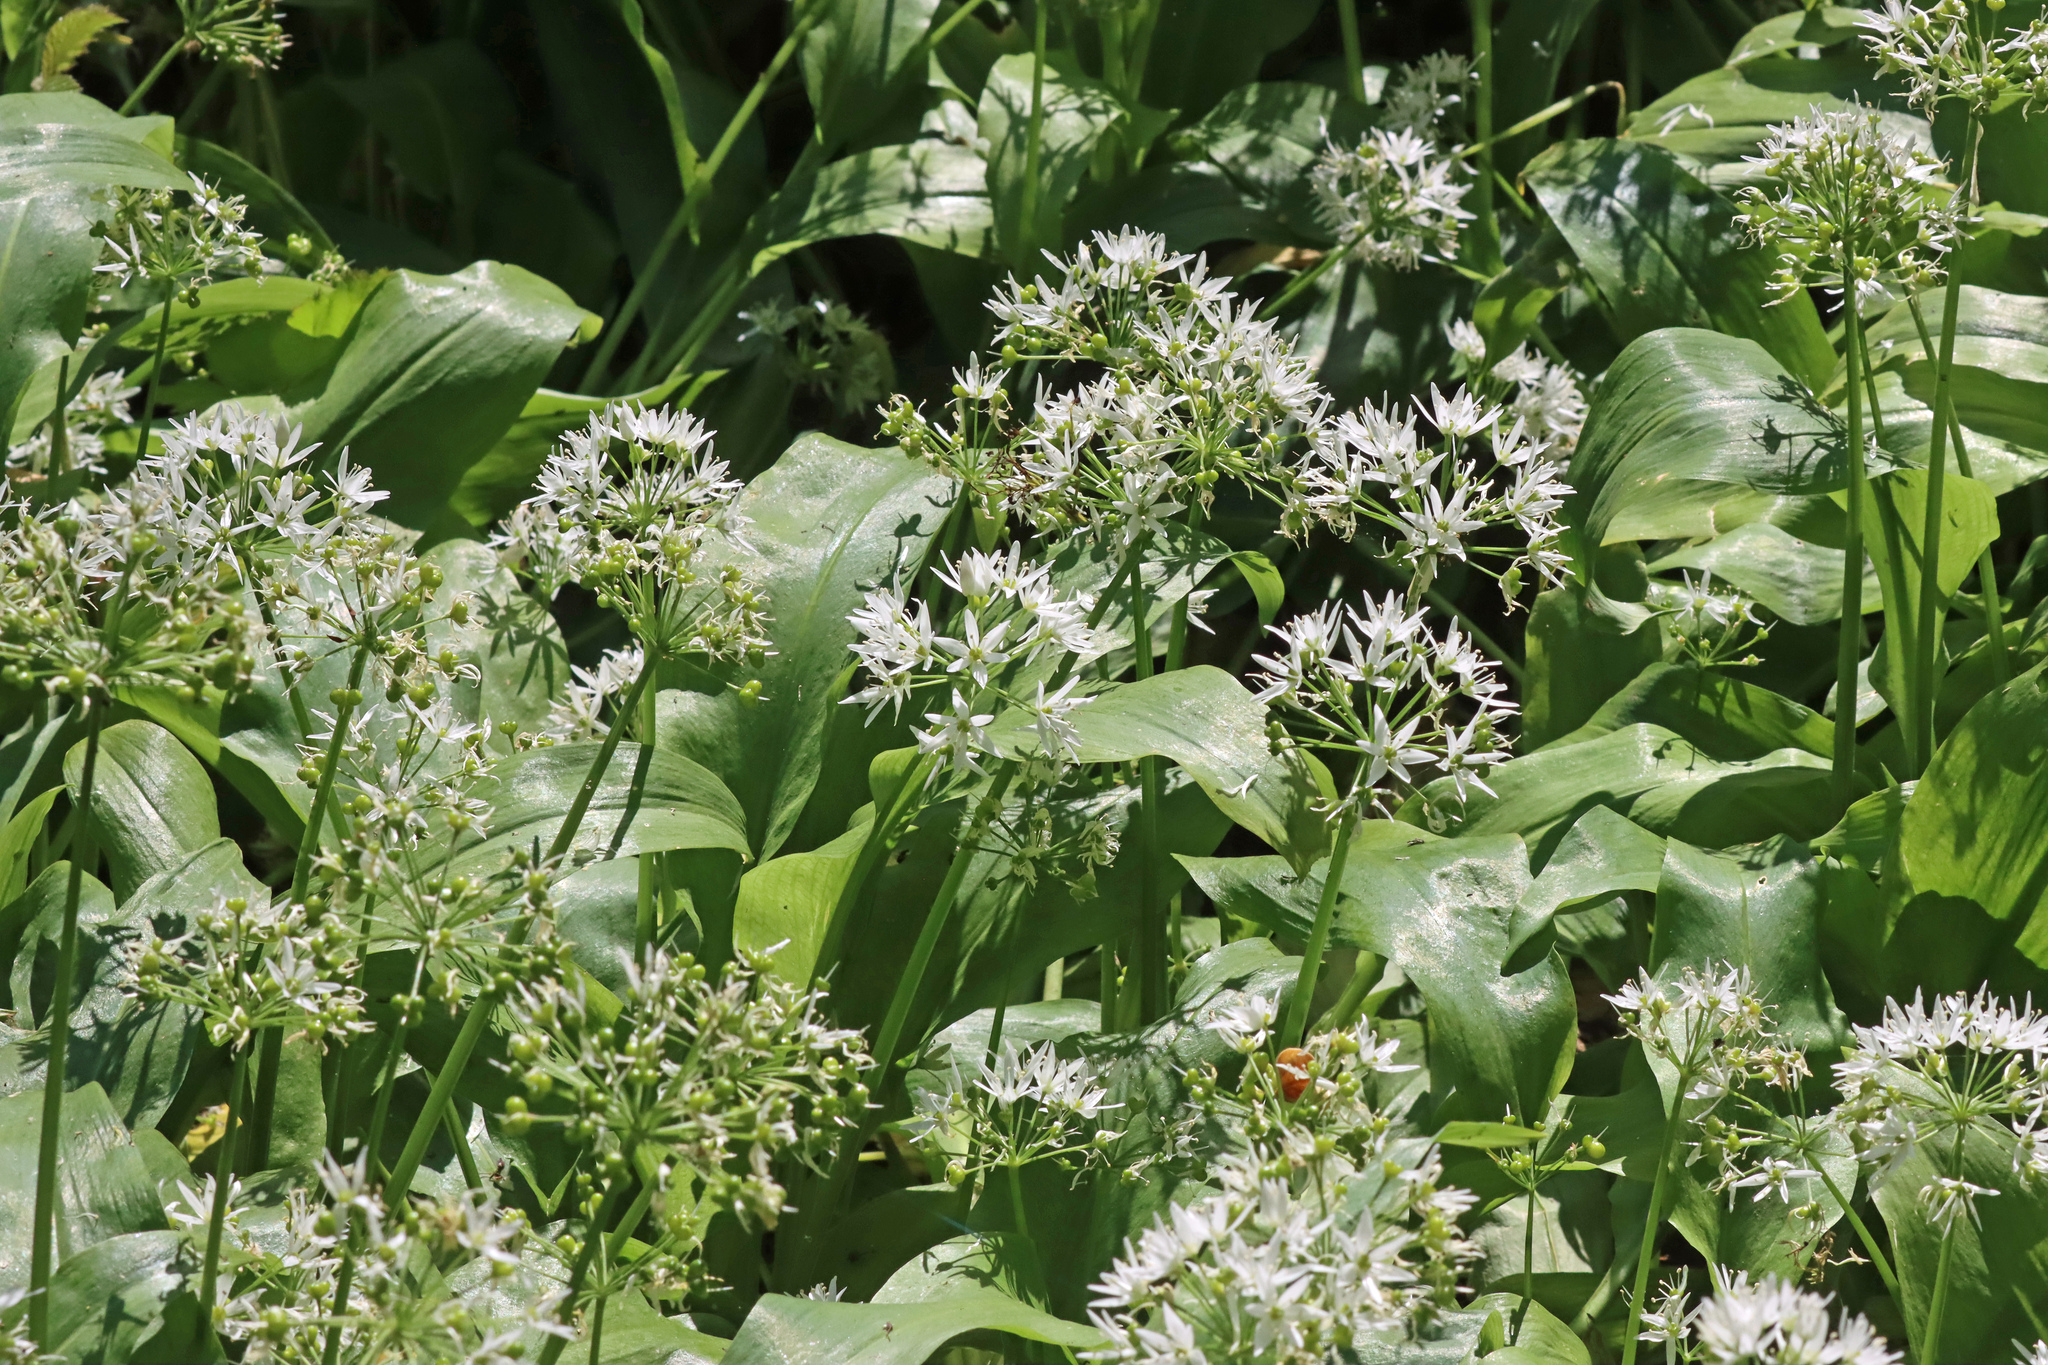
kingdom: Plantae
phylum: Tracheophyta
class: Liliopsida
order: Asparagales
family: Amaryllidaceae
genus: Allium
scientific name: Allium ursinum
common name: Ramsons
